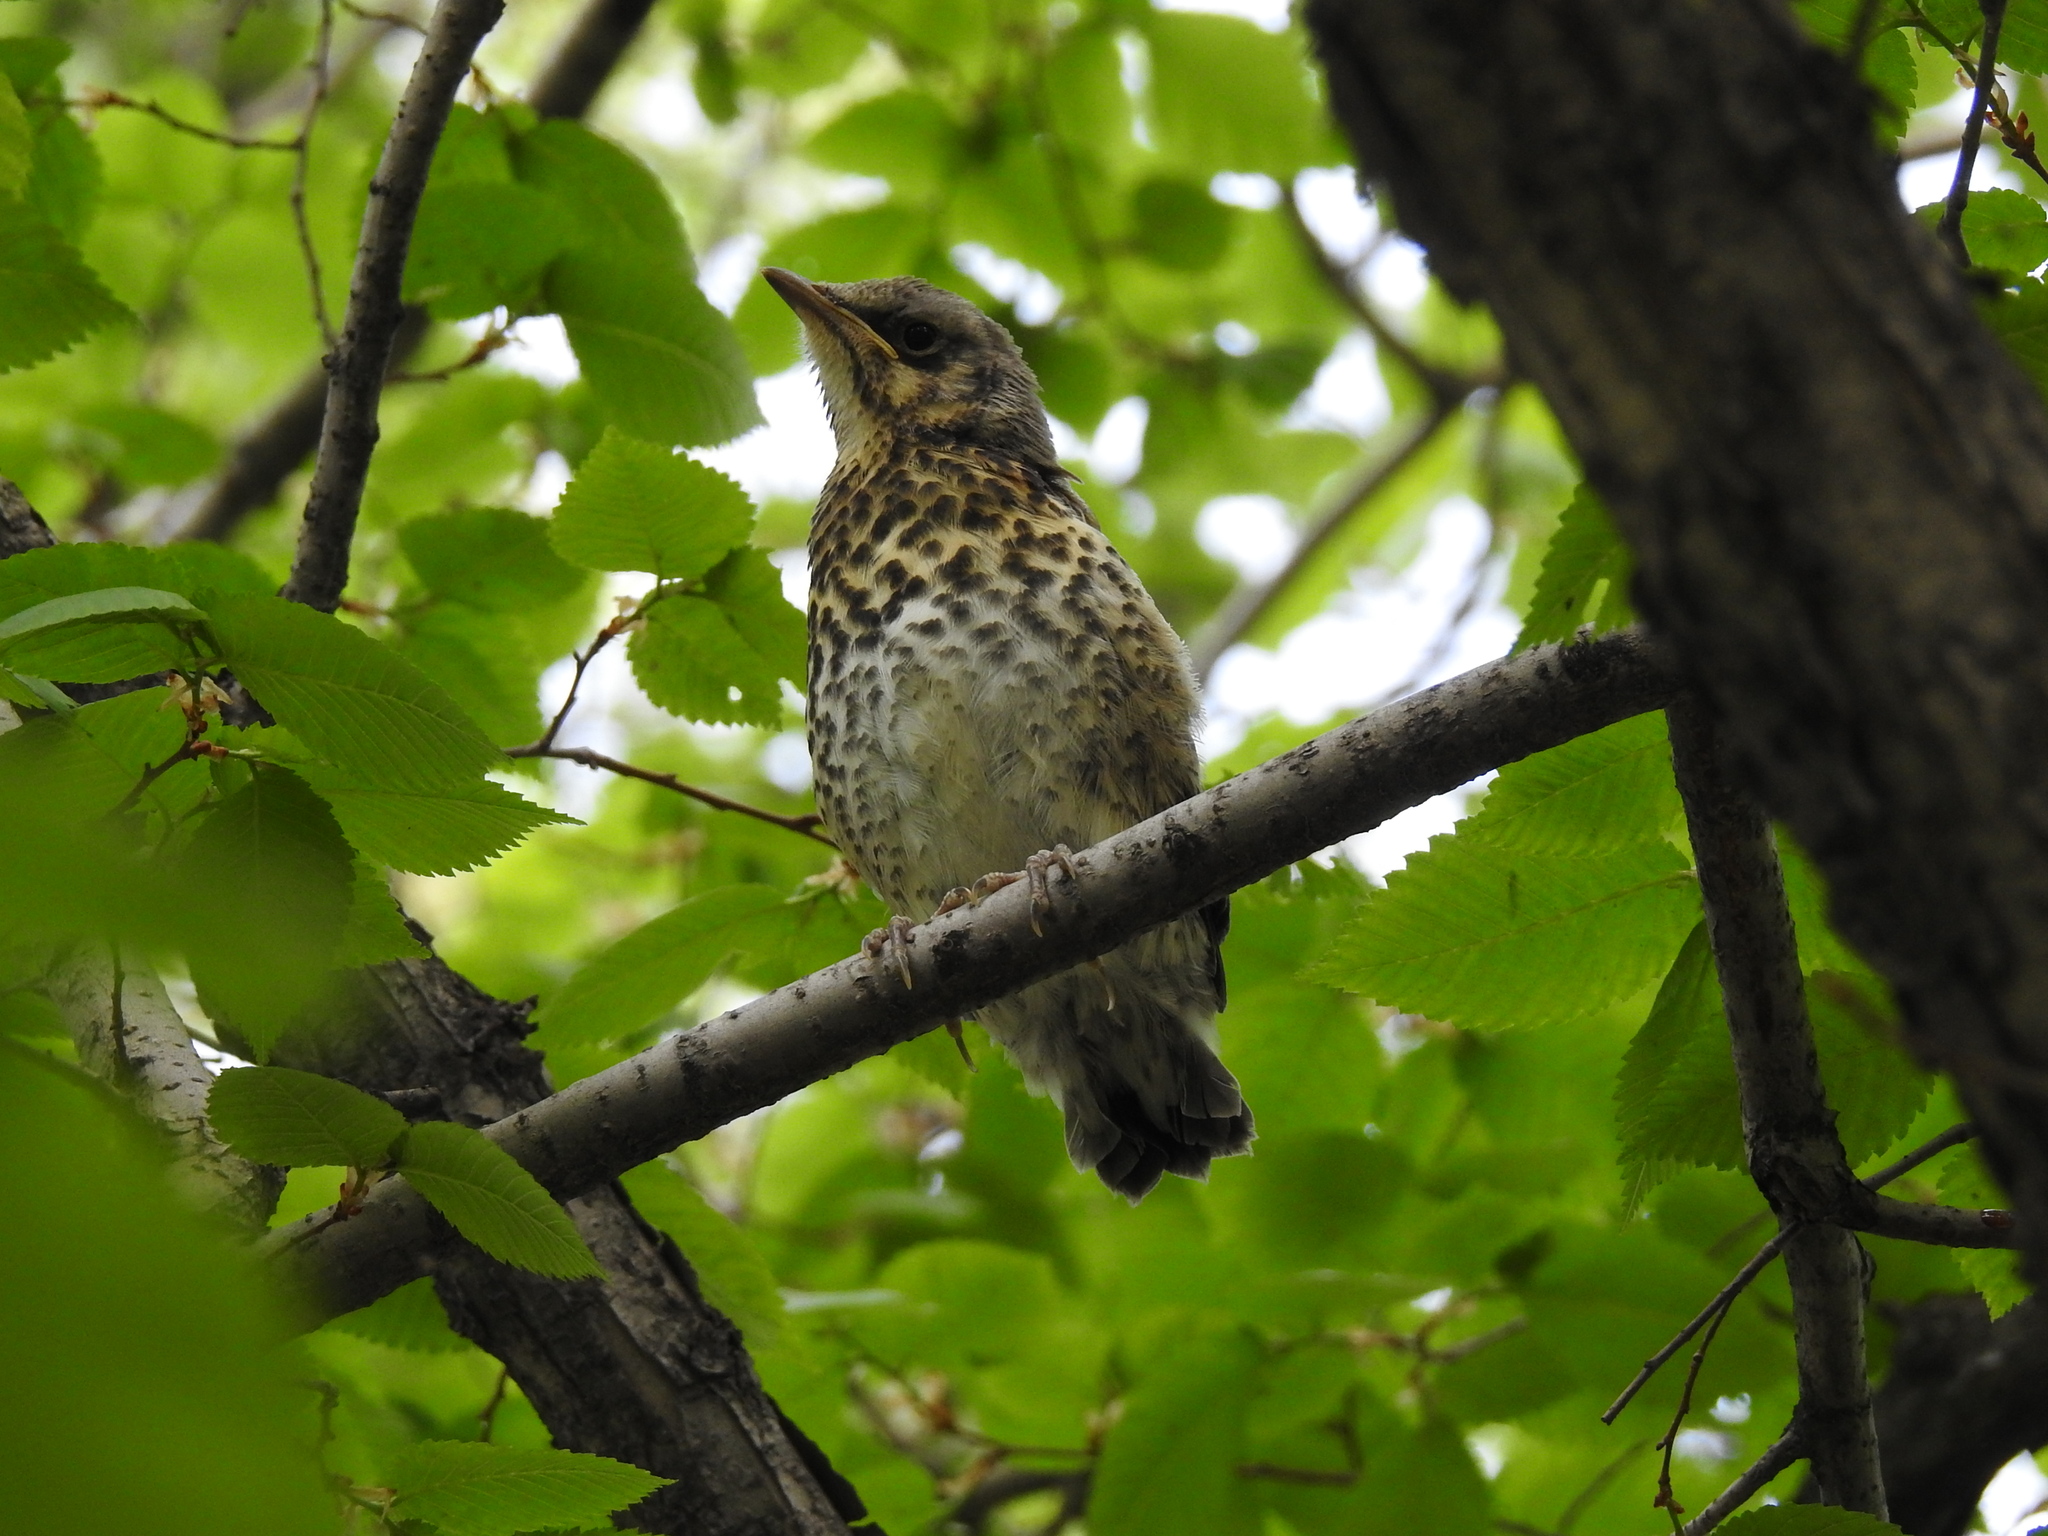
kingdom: Animalia
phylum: Chordata
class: Aves
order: Passeriformes
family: Turdidae
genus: Turdus
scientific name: Turdus pilaris
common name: Fieldfare
